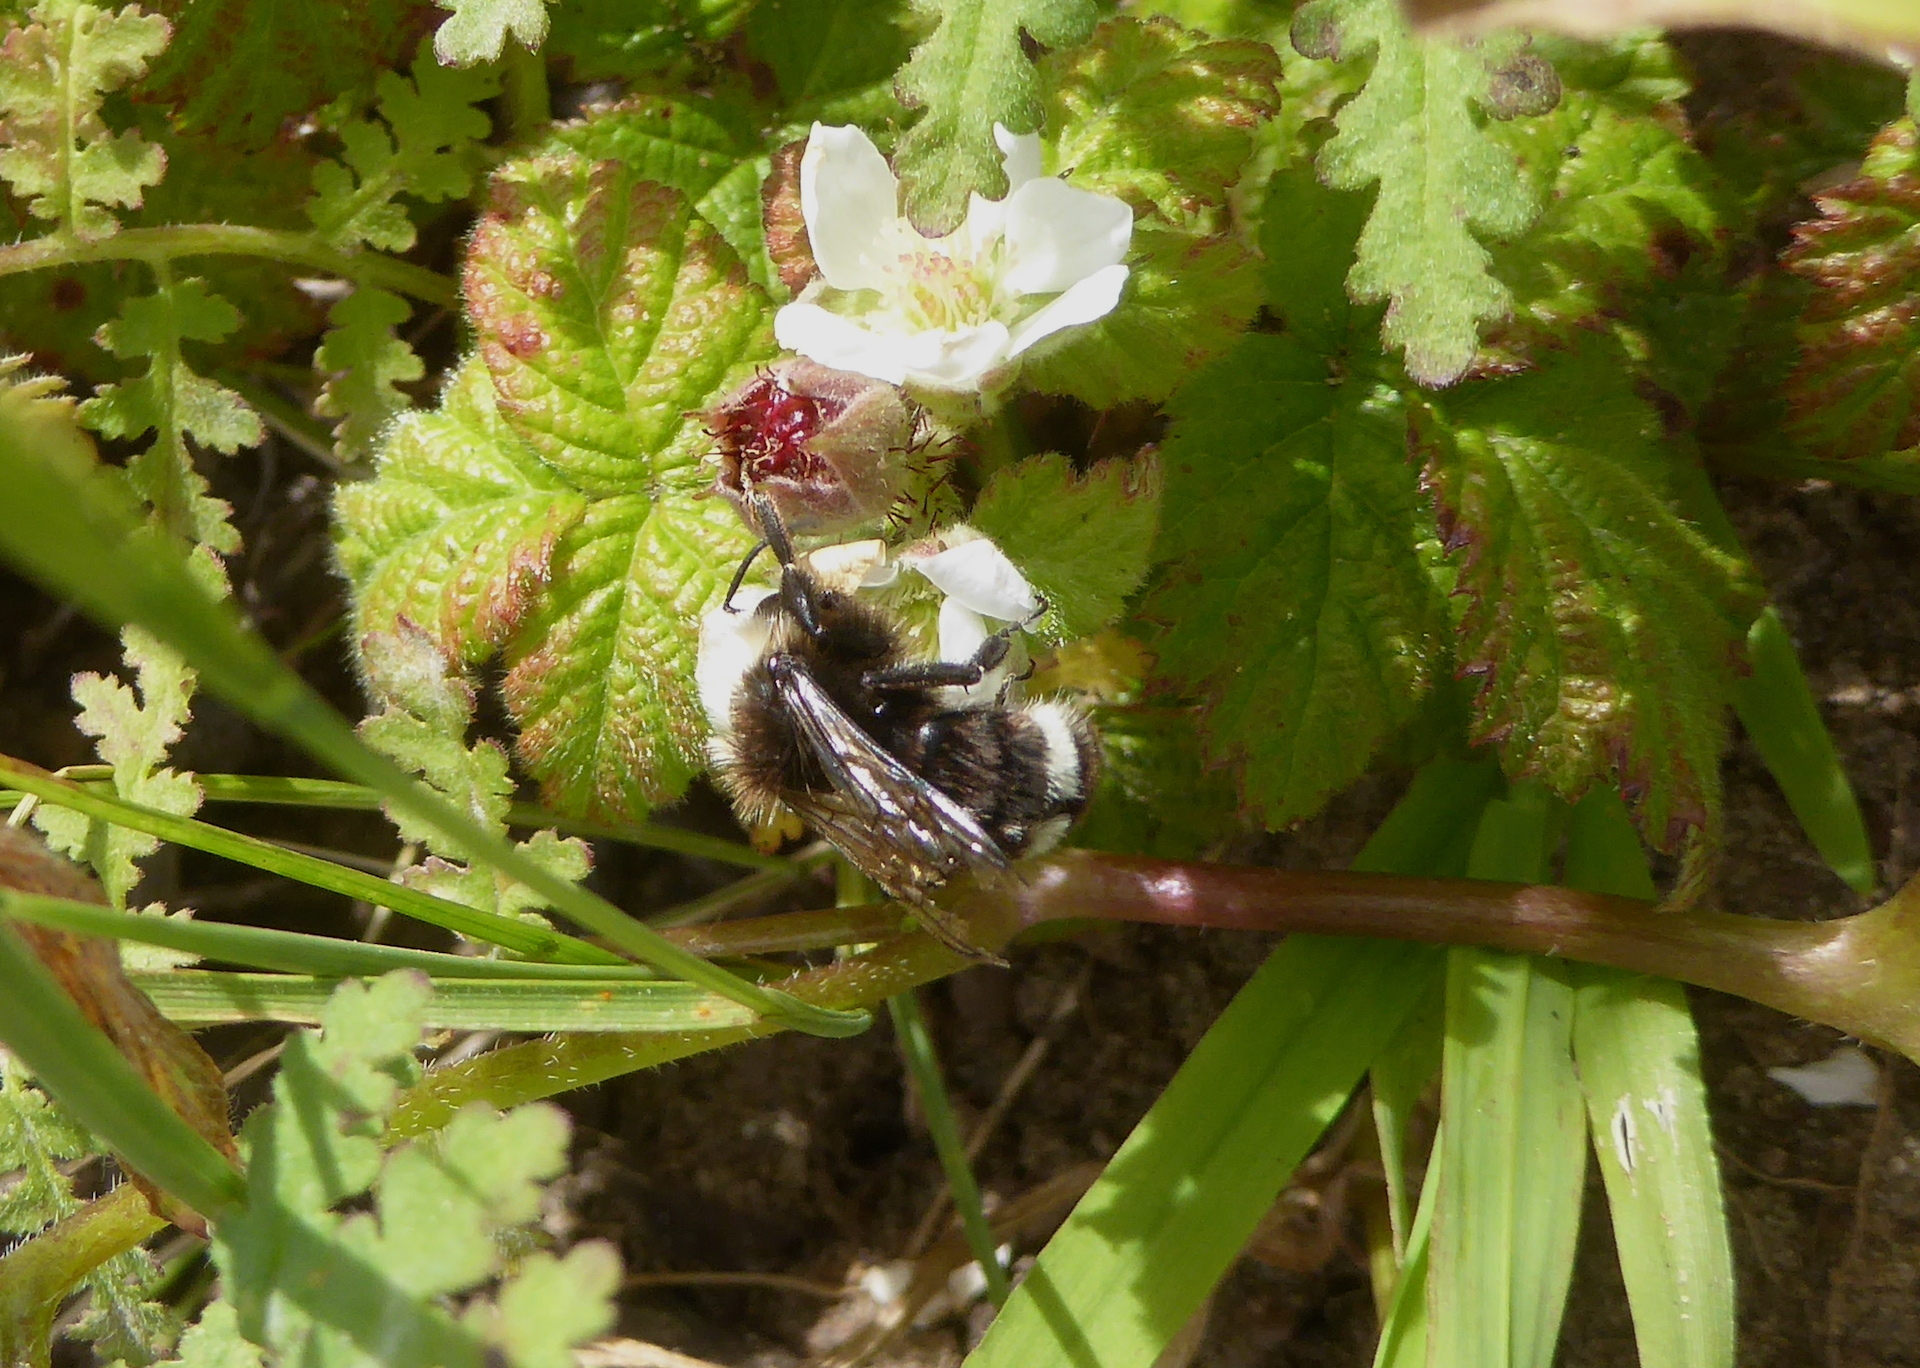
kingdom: Animalia
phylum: Arthropoda
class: Insecta
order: Hymenoptera
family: Apidae
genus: Pyrobombus
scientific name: Pyrobombus
